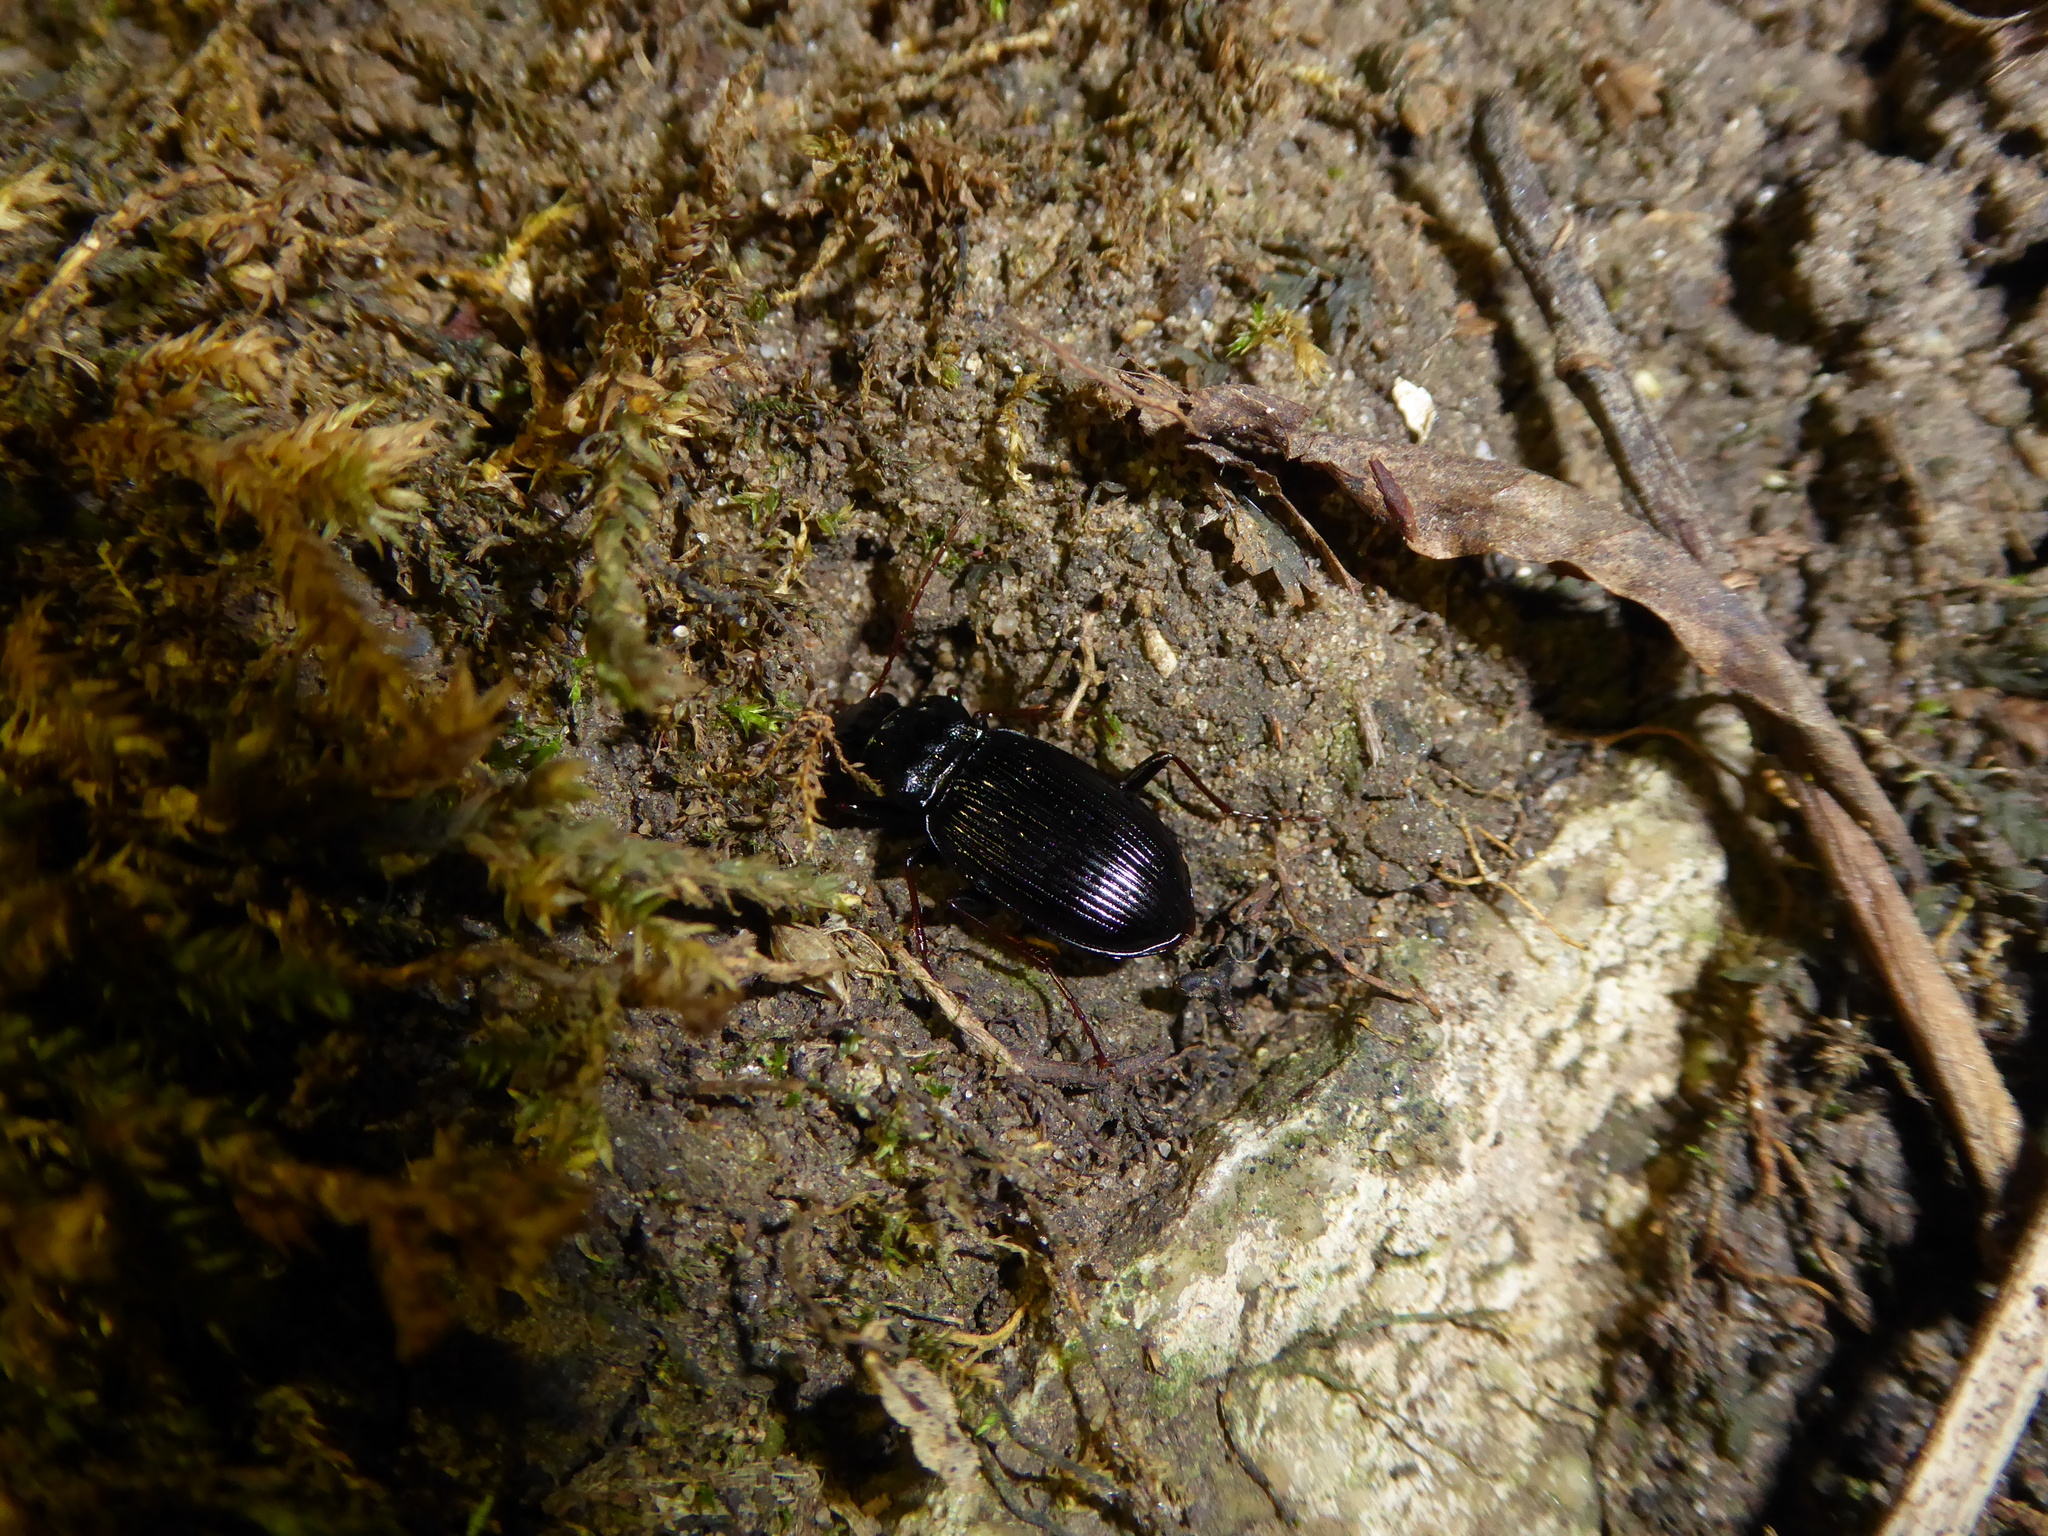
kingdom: Animalia
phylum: Arthropoda
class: Insecta
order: Coleoptera
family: Carabidae
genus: Nebria
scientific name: Nebria brevicollis
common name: Short-necked gazelle beetle
